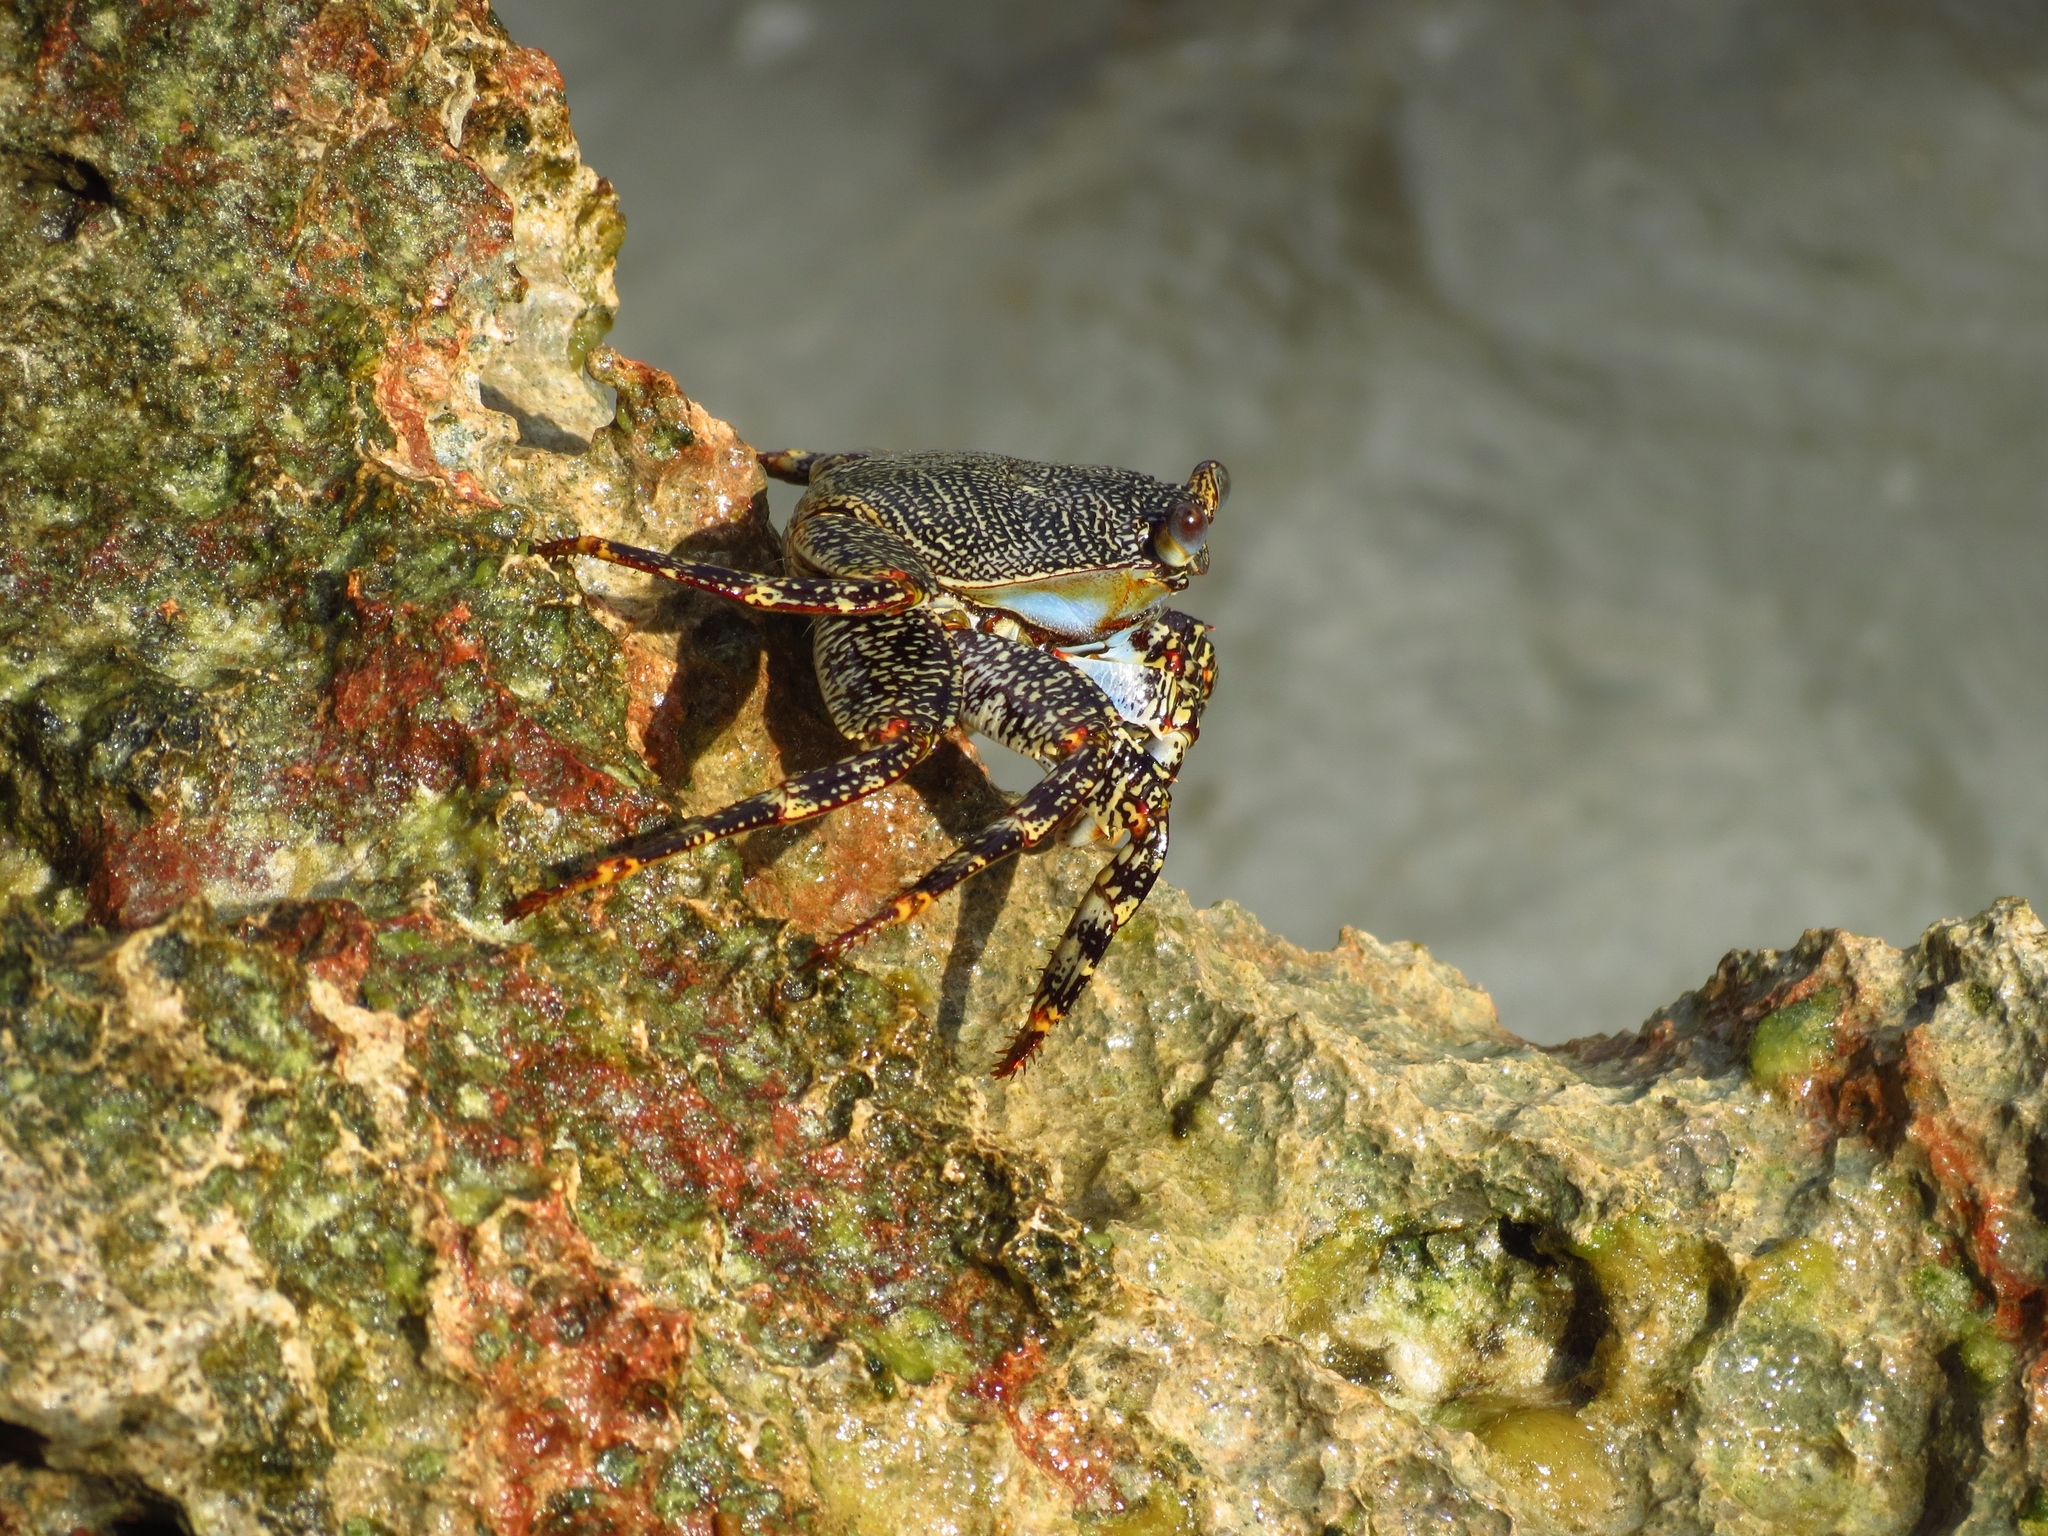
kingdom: Animalia
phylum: Arthropoda
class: Malacostraca
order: Decapoda
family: Grapsidae
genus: Grapsus
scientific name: Grapsus grapsus
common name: Sally lightfoot
